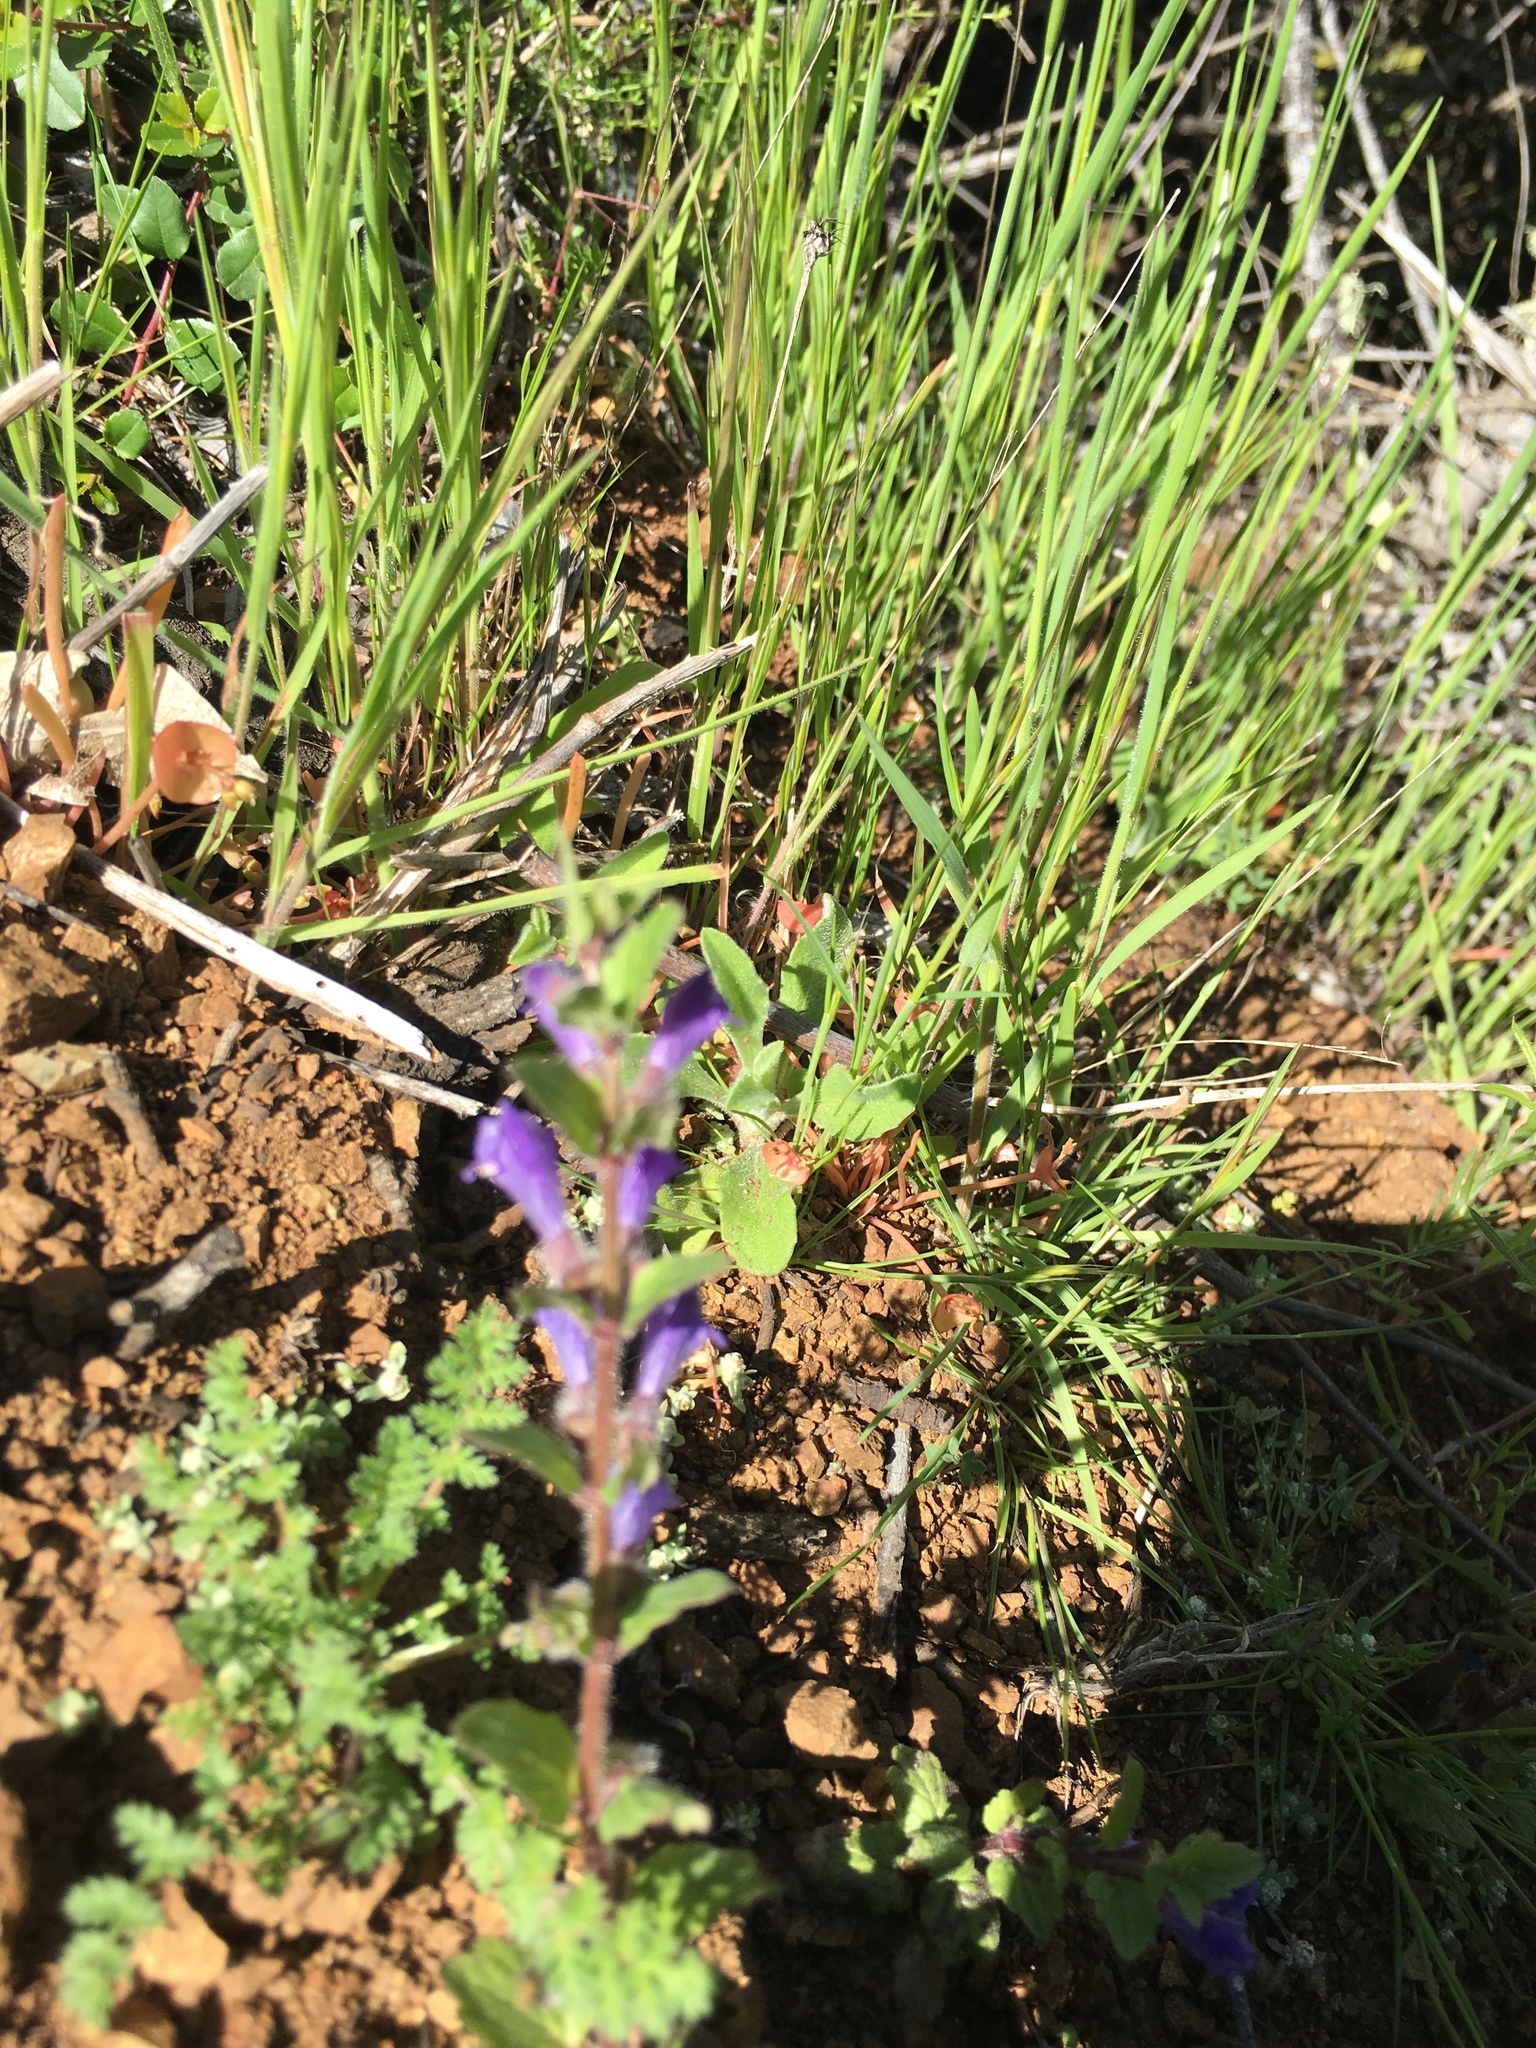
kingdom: Plantae
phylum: Tracheophyta
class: Magnoliopsida
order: Lamiales
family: Lamiaceae
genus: Scutellaria
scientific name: Scutellaria tuberosa
